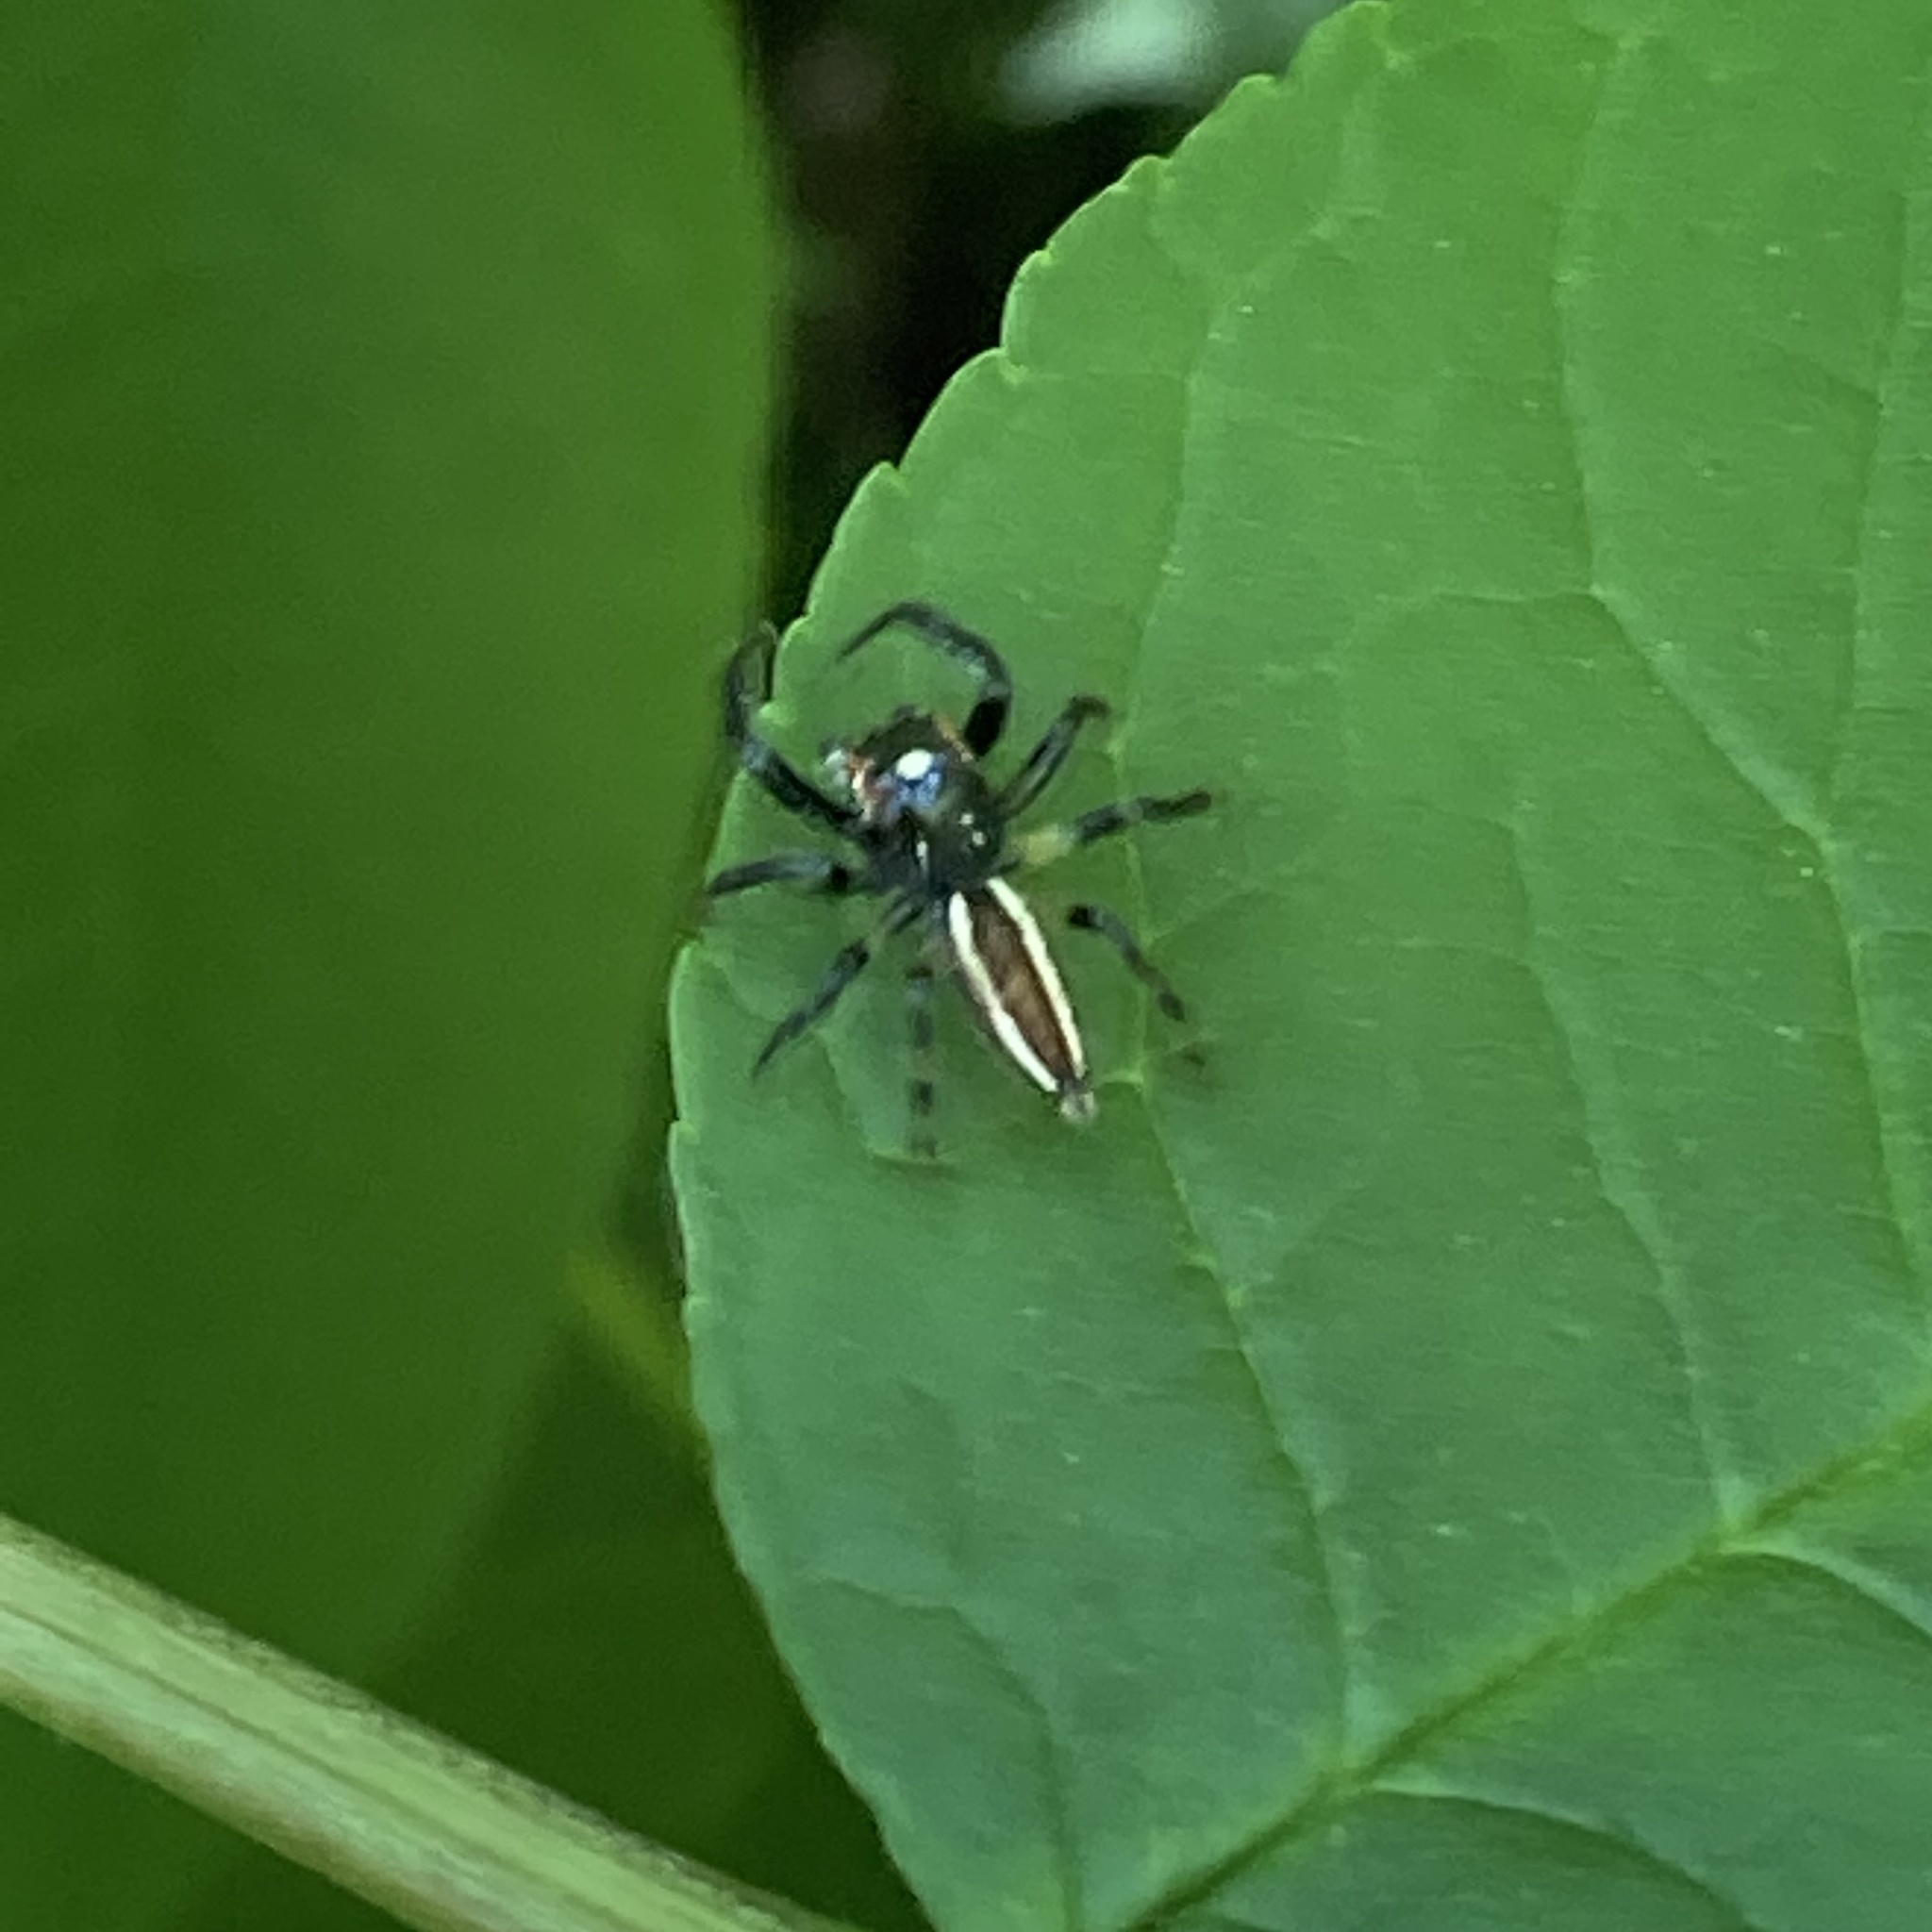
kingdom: Animalia
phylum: Arthropoda
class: Arachnida
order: Araneae
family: Salticidae
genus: Colonus
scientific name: Colonus sylvanus
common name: Jumping spiders
